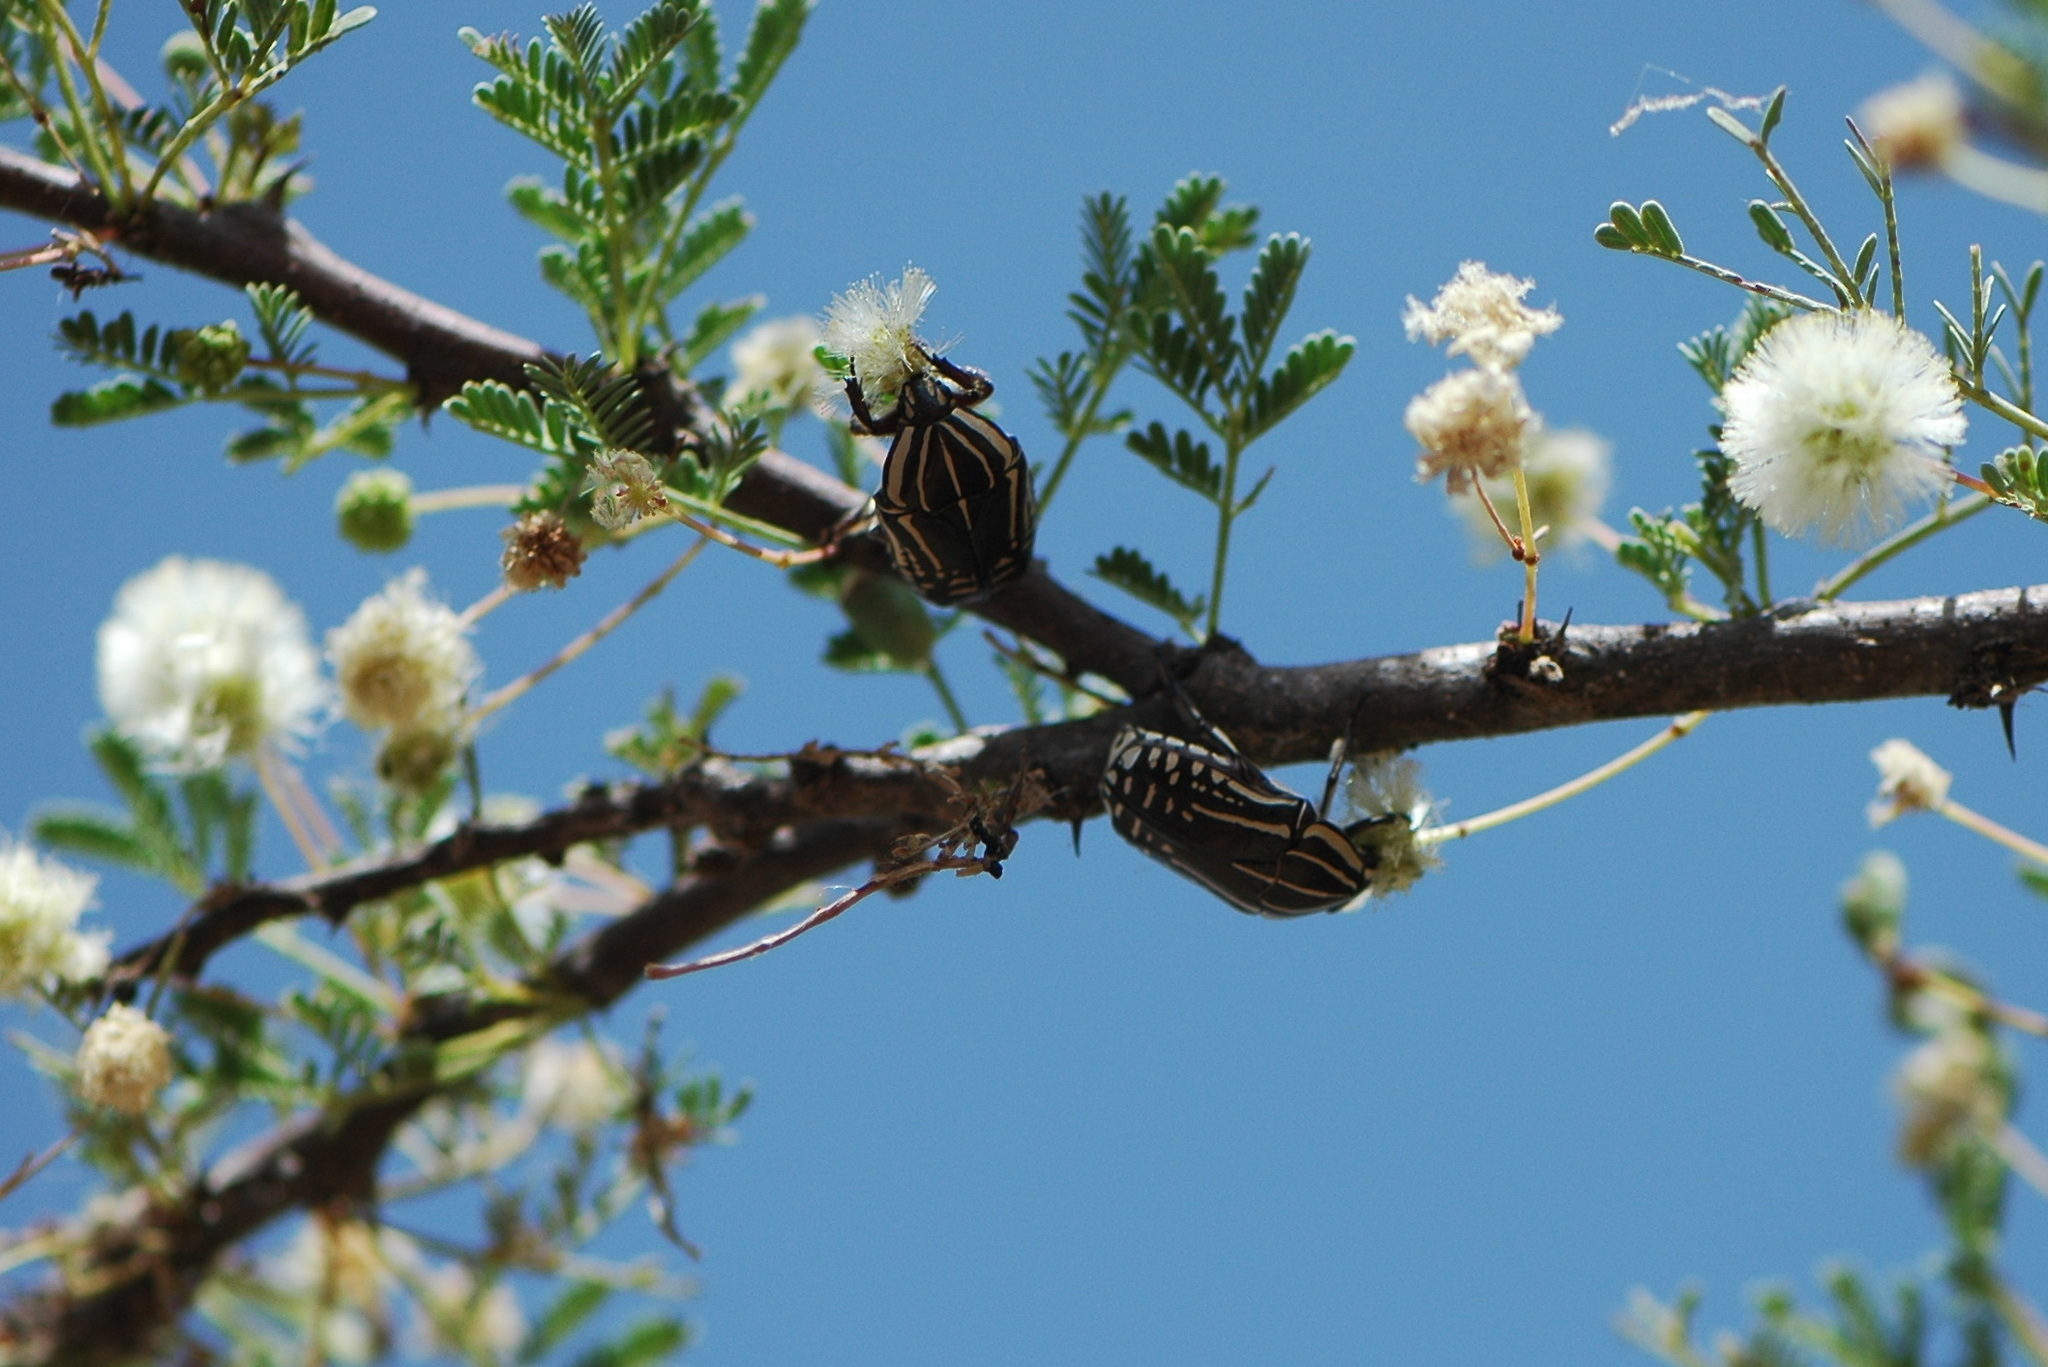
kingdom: Animalia
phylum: Arthropoda
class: Insecta
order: Coleoptera
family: Scarabaeidae
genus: Rhabdotis
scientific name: Rhabdotis sobrina
